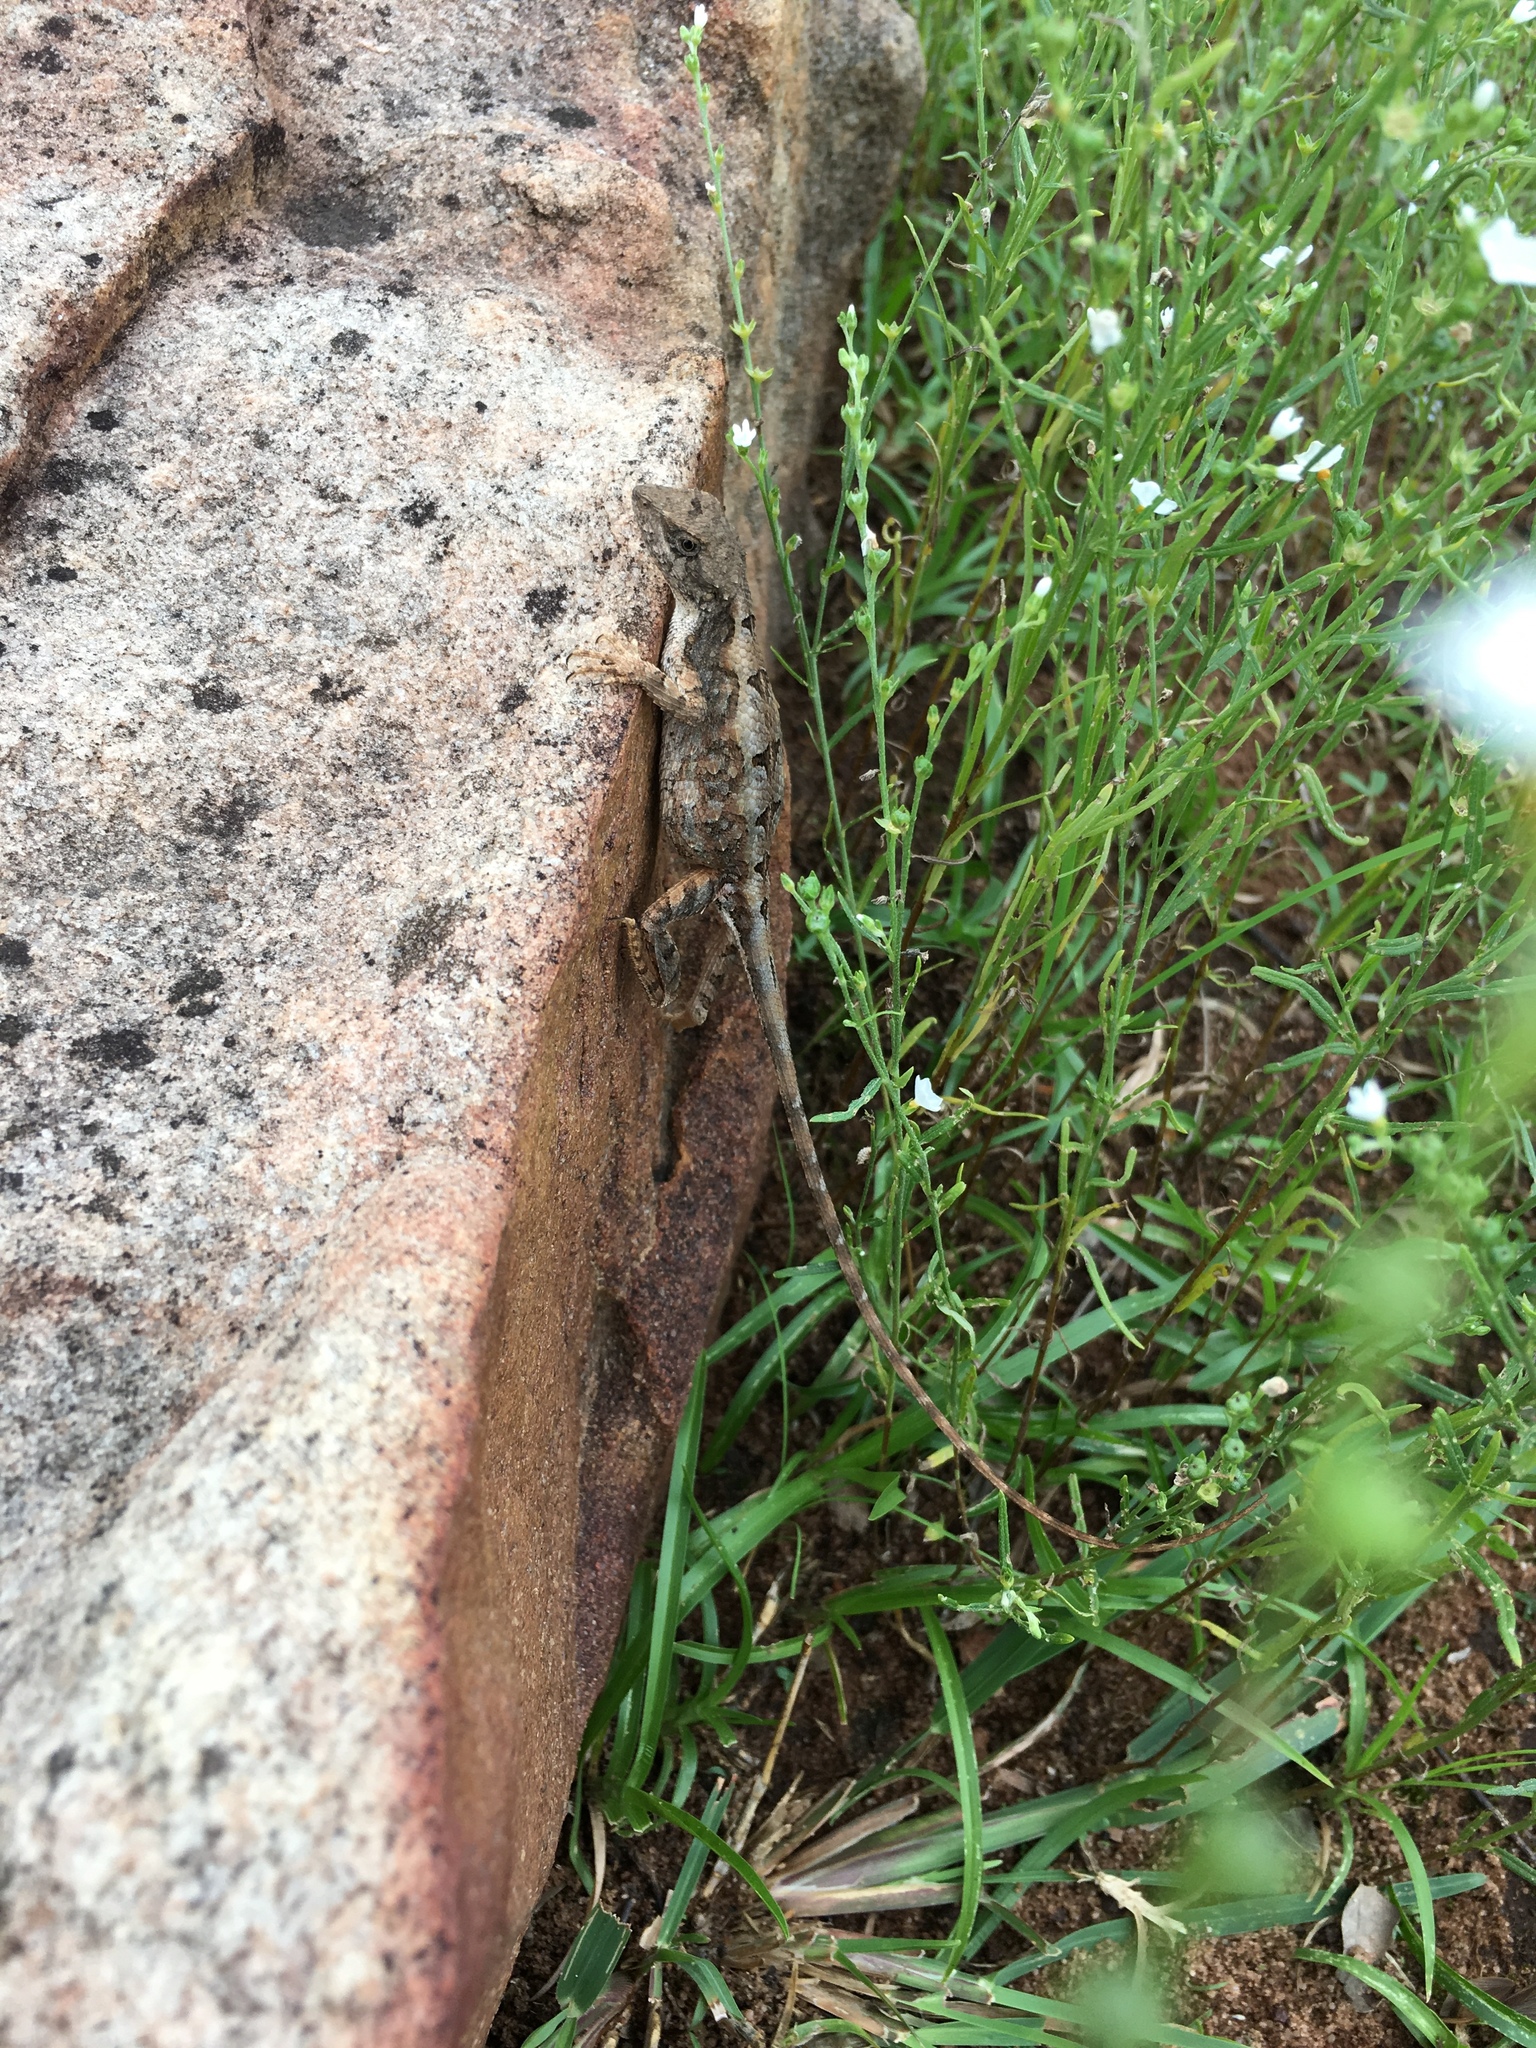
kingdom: Animalia
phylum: Chordata
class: Squamata
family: Agamidae
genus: Sitana
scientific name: Sitana sushili
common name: Sushil’s fan-throated lizard
